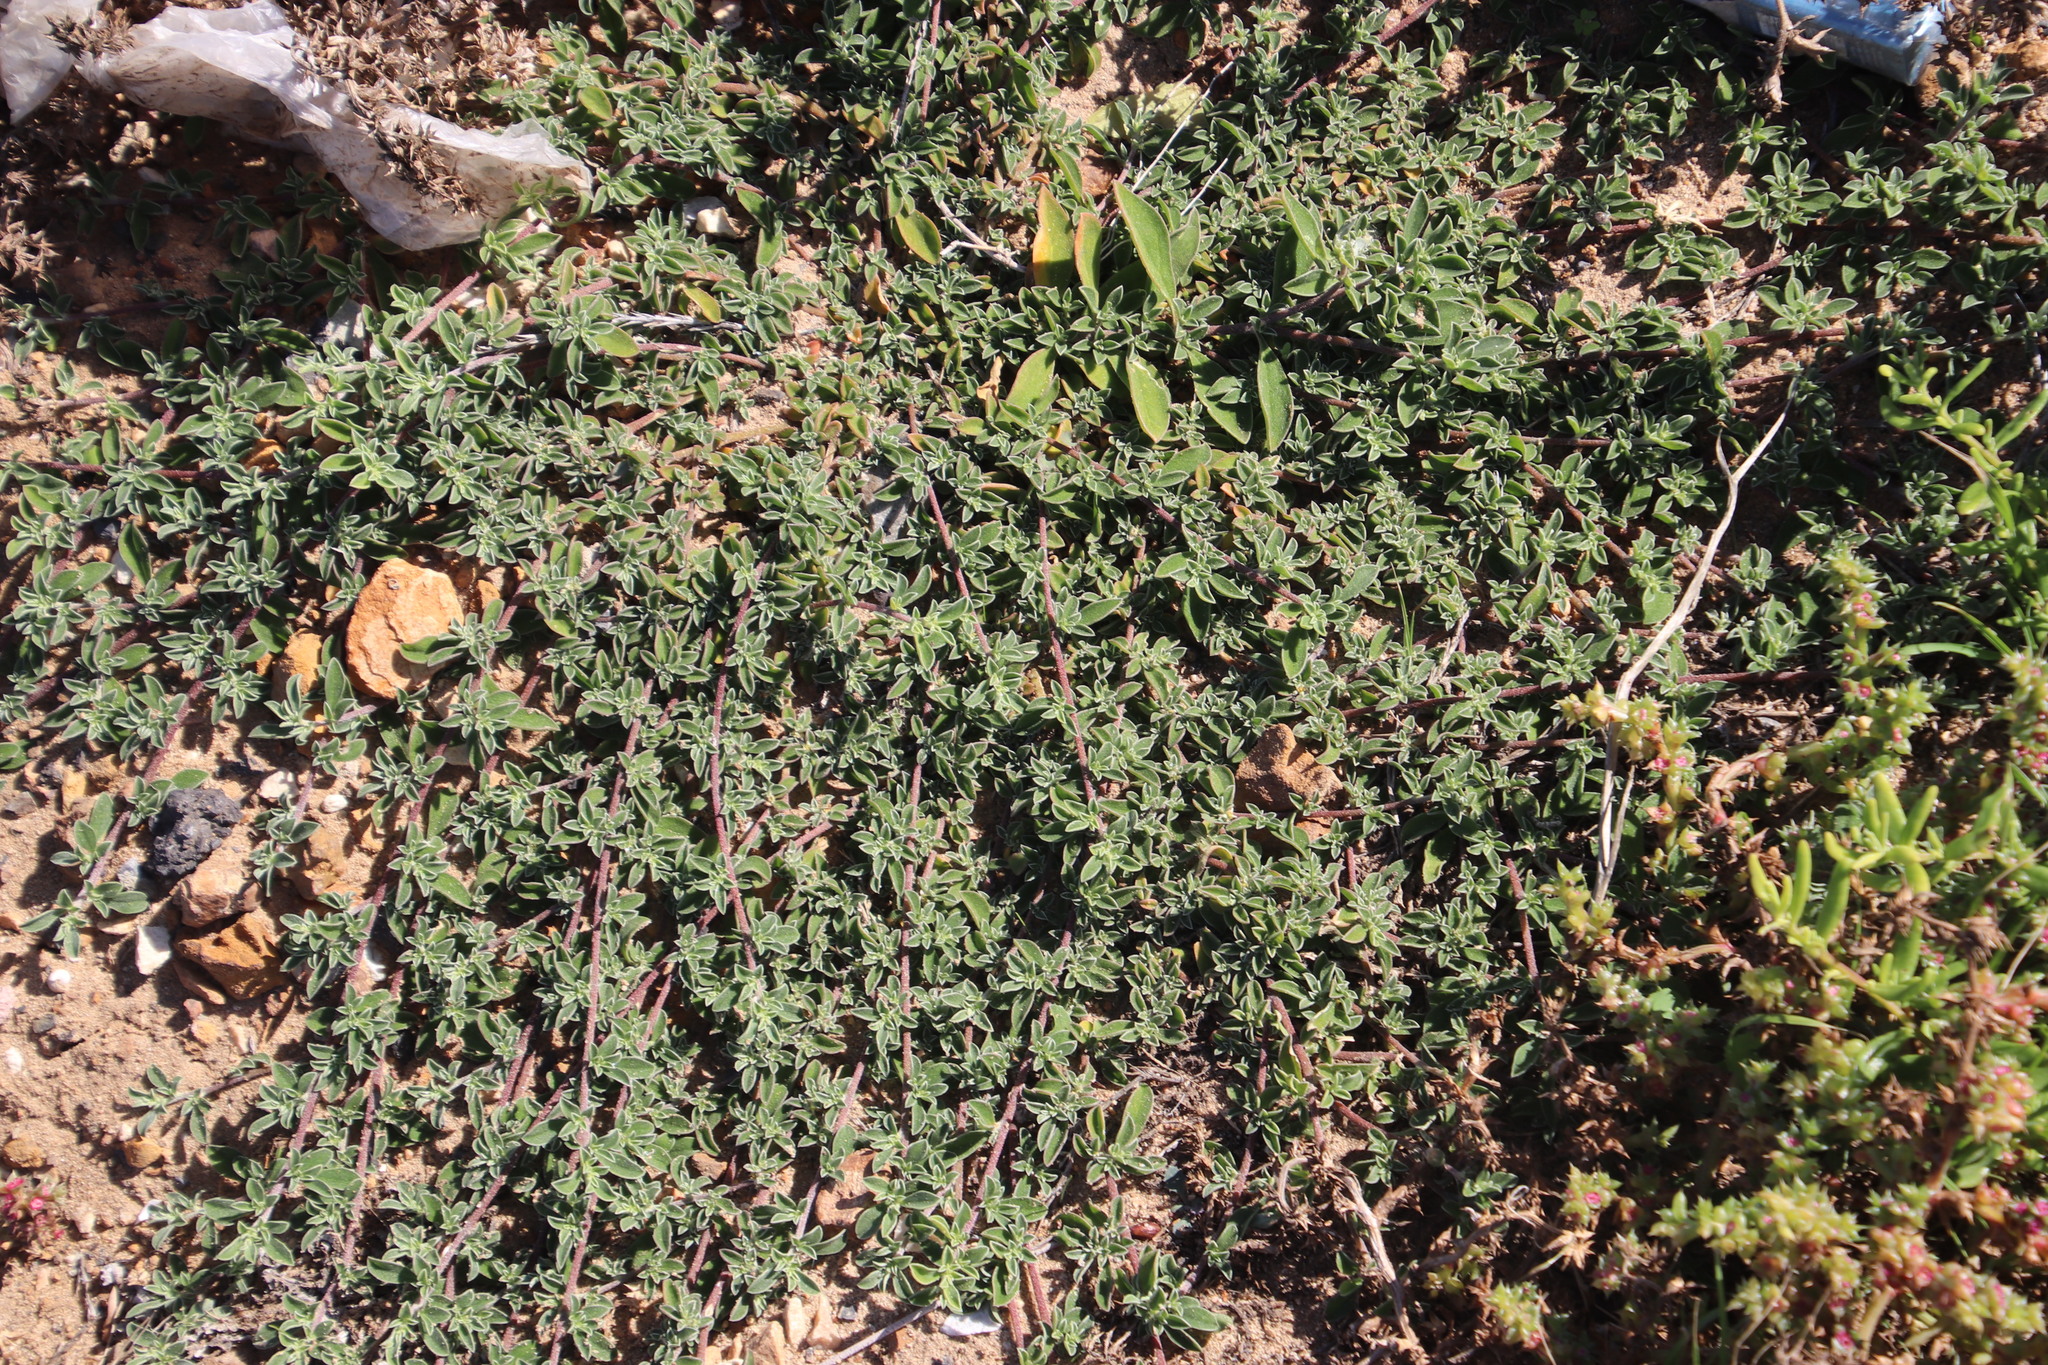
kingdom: Plantae
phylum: Tracheophyta
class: Magnoliopsida
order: Caryophyllales
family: Aizoaceae
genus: Aizoon
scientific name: Aizoon secundum
